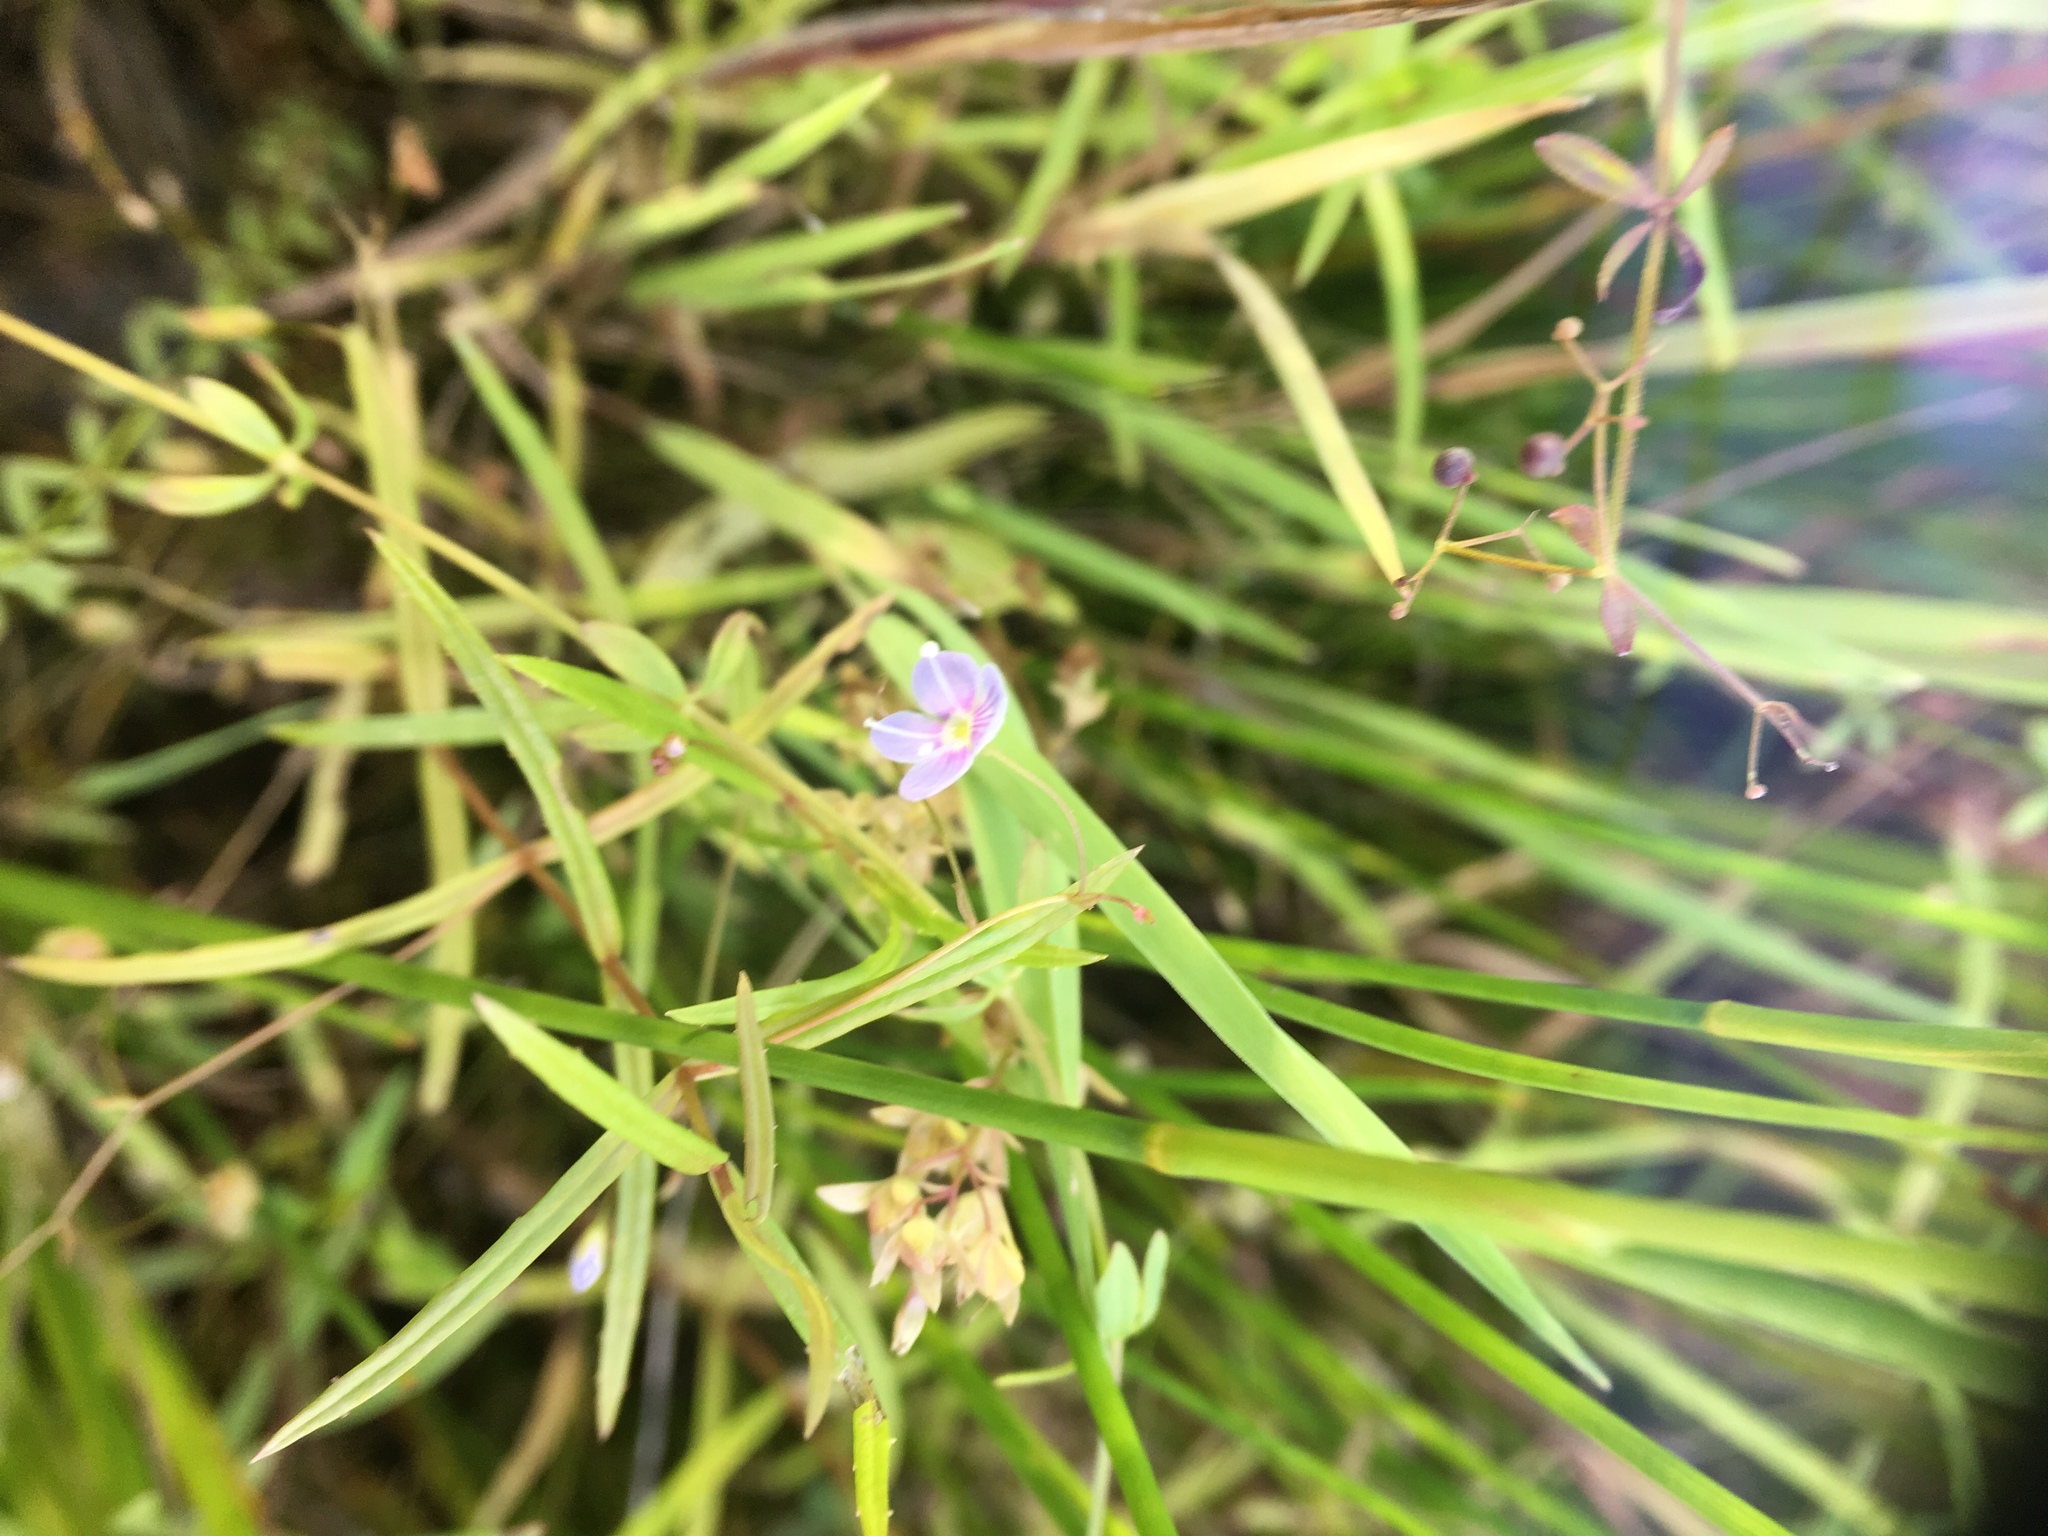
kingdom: Plantae
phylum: Tracheophyta
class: Magnoliopsida
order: Lamiales
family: Plantaginaceae
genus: Veronica
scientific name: Veronica scutellata
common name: Marsh speedwell
